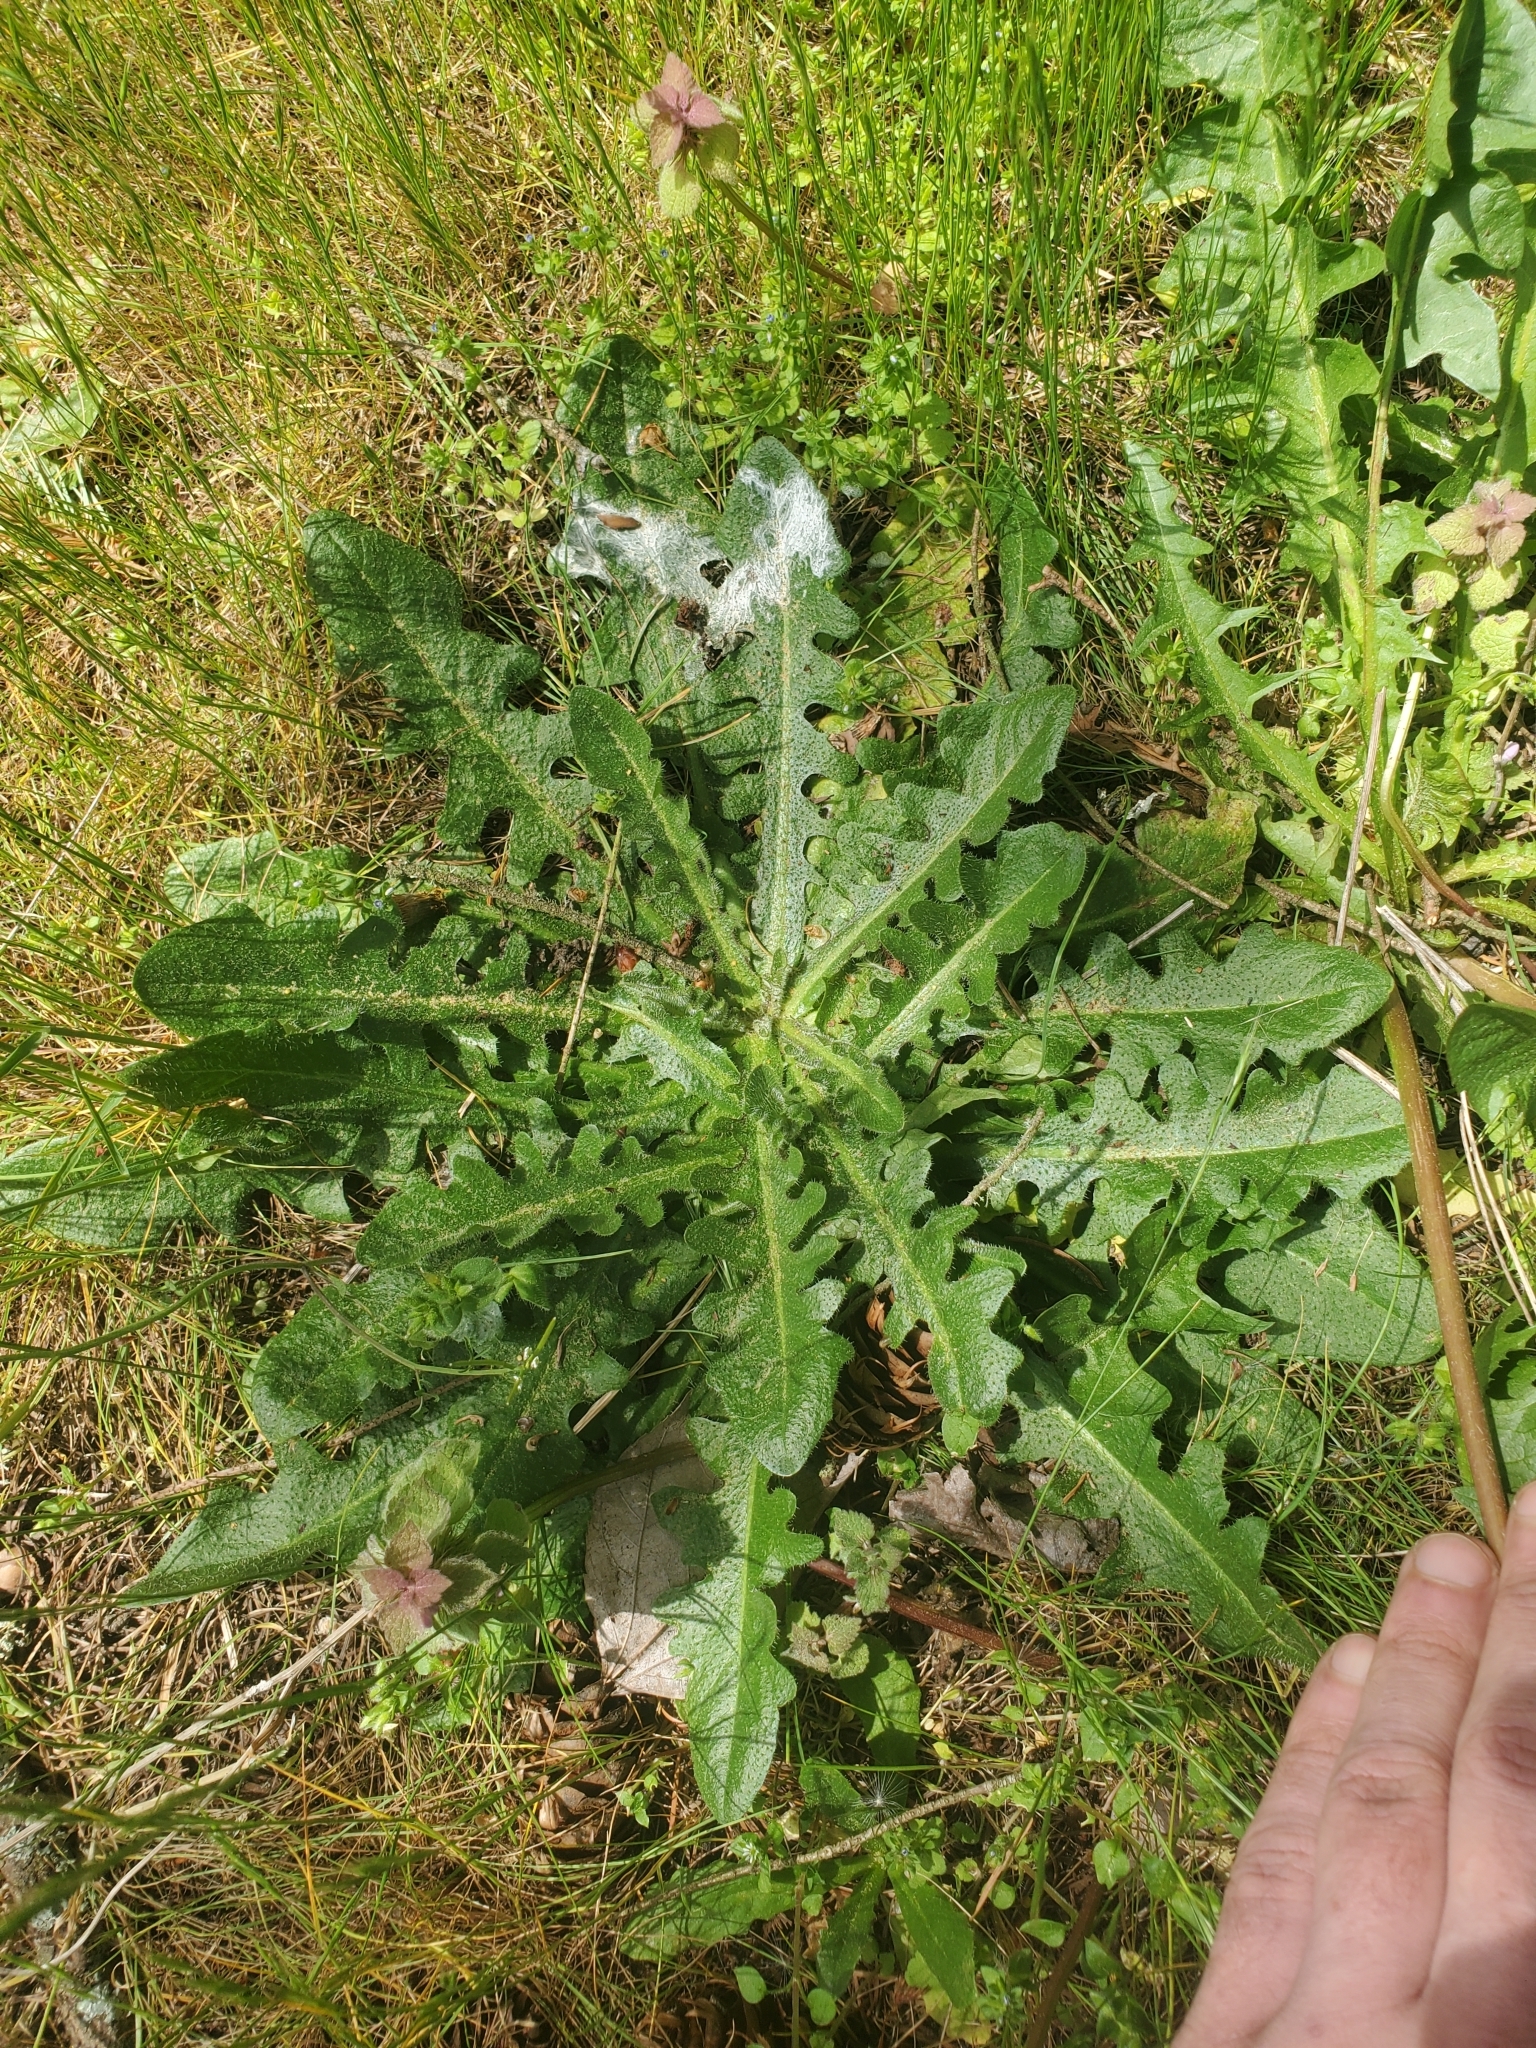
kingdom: Plantae
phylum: Tracheophyta
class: Magnoliopsida
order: Asterales
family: Asteraceae
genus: Hypochaeris
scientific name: Hypochaeris radicata
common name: Flatweed
